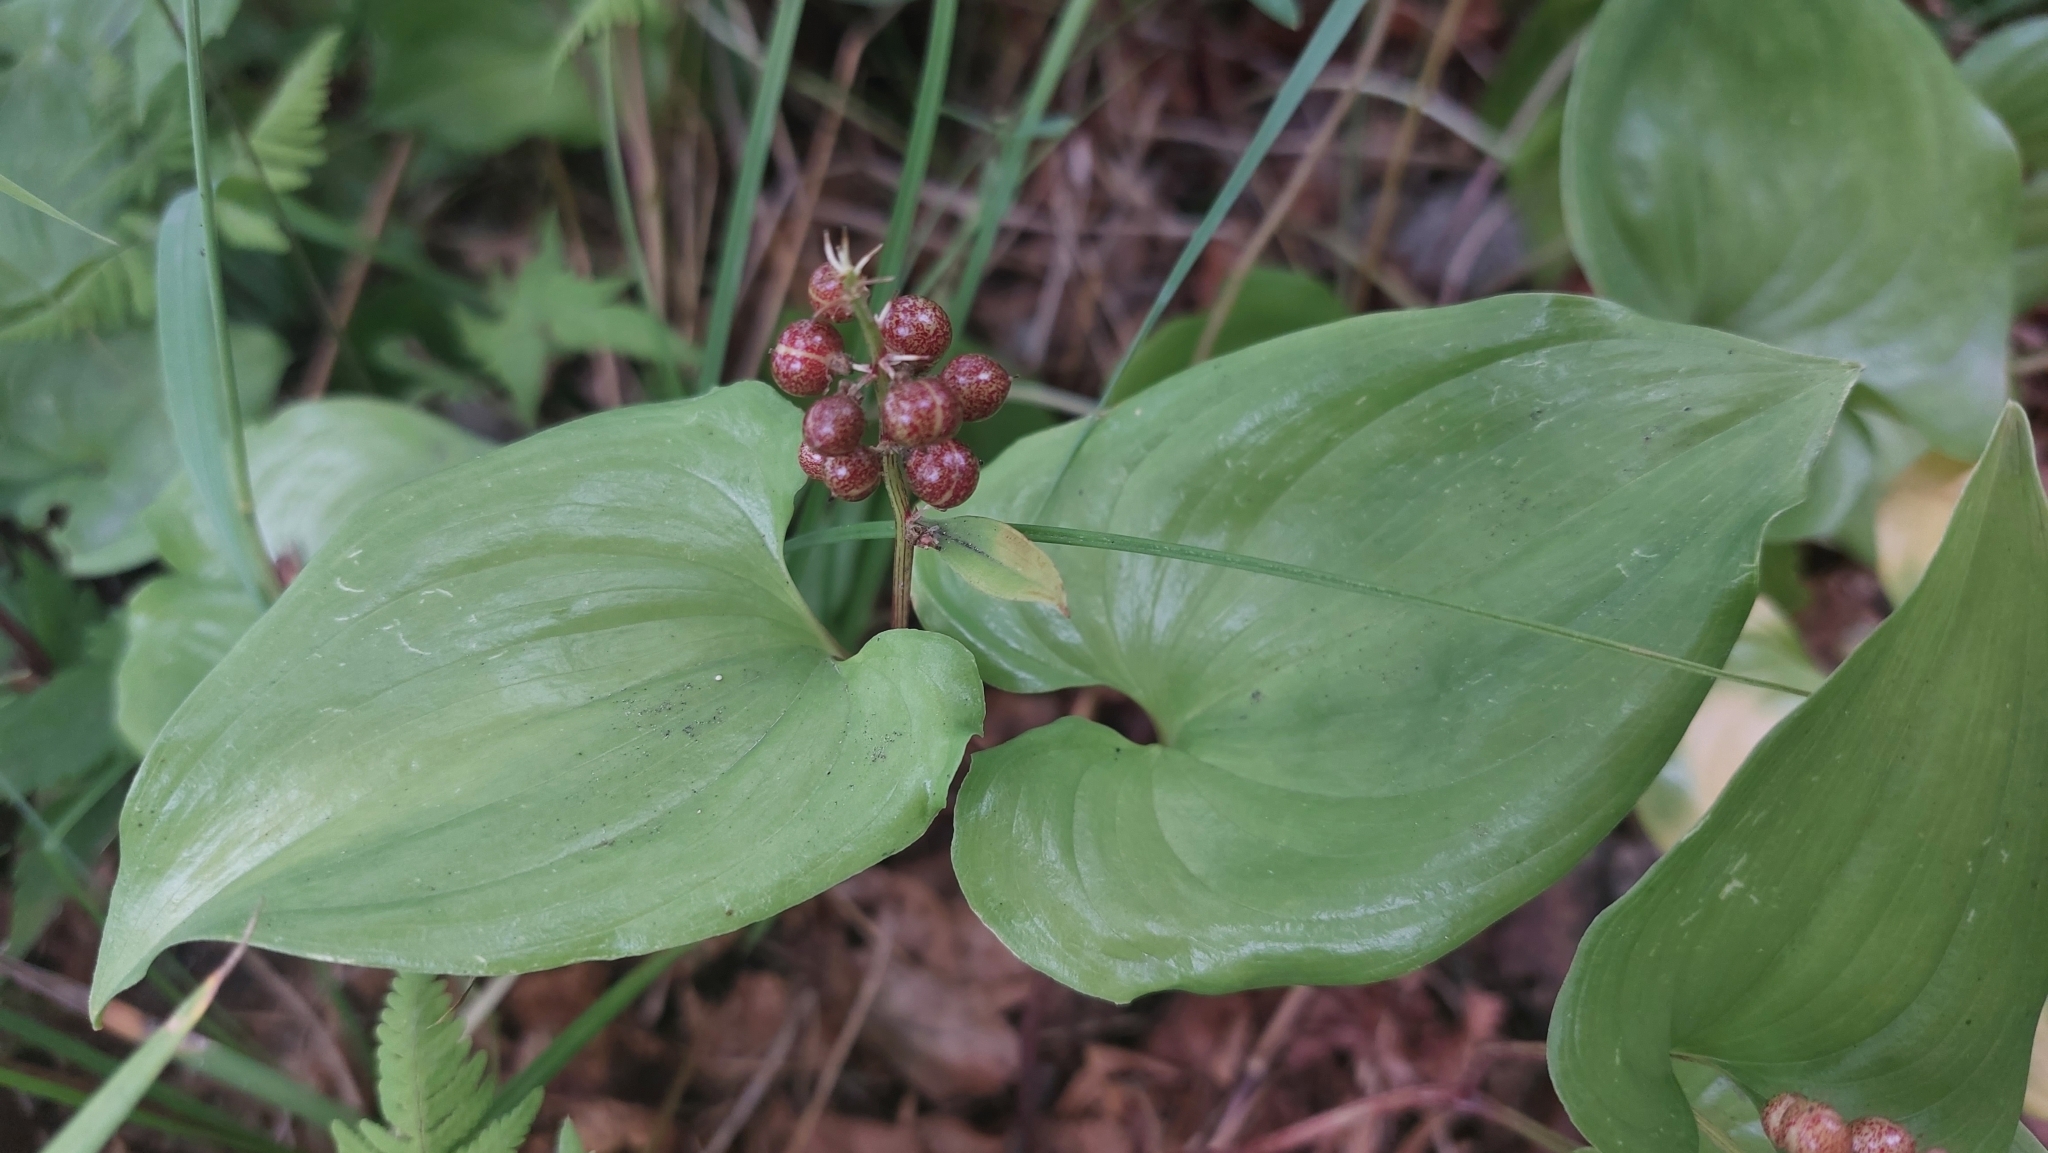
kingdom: Plantae
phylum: Tracheophyta
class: Liliopsida
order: Asparagales
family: Asparagaceae
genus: Maianthemum
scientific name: Maianthemum bifolium
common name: May lily
